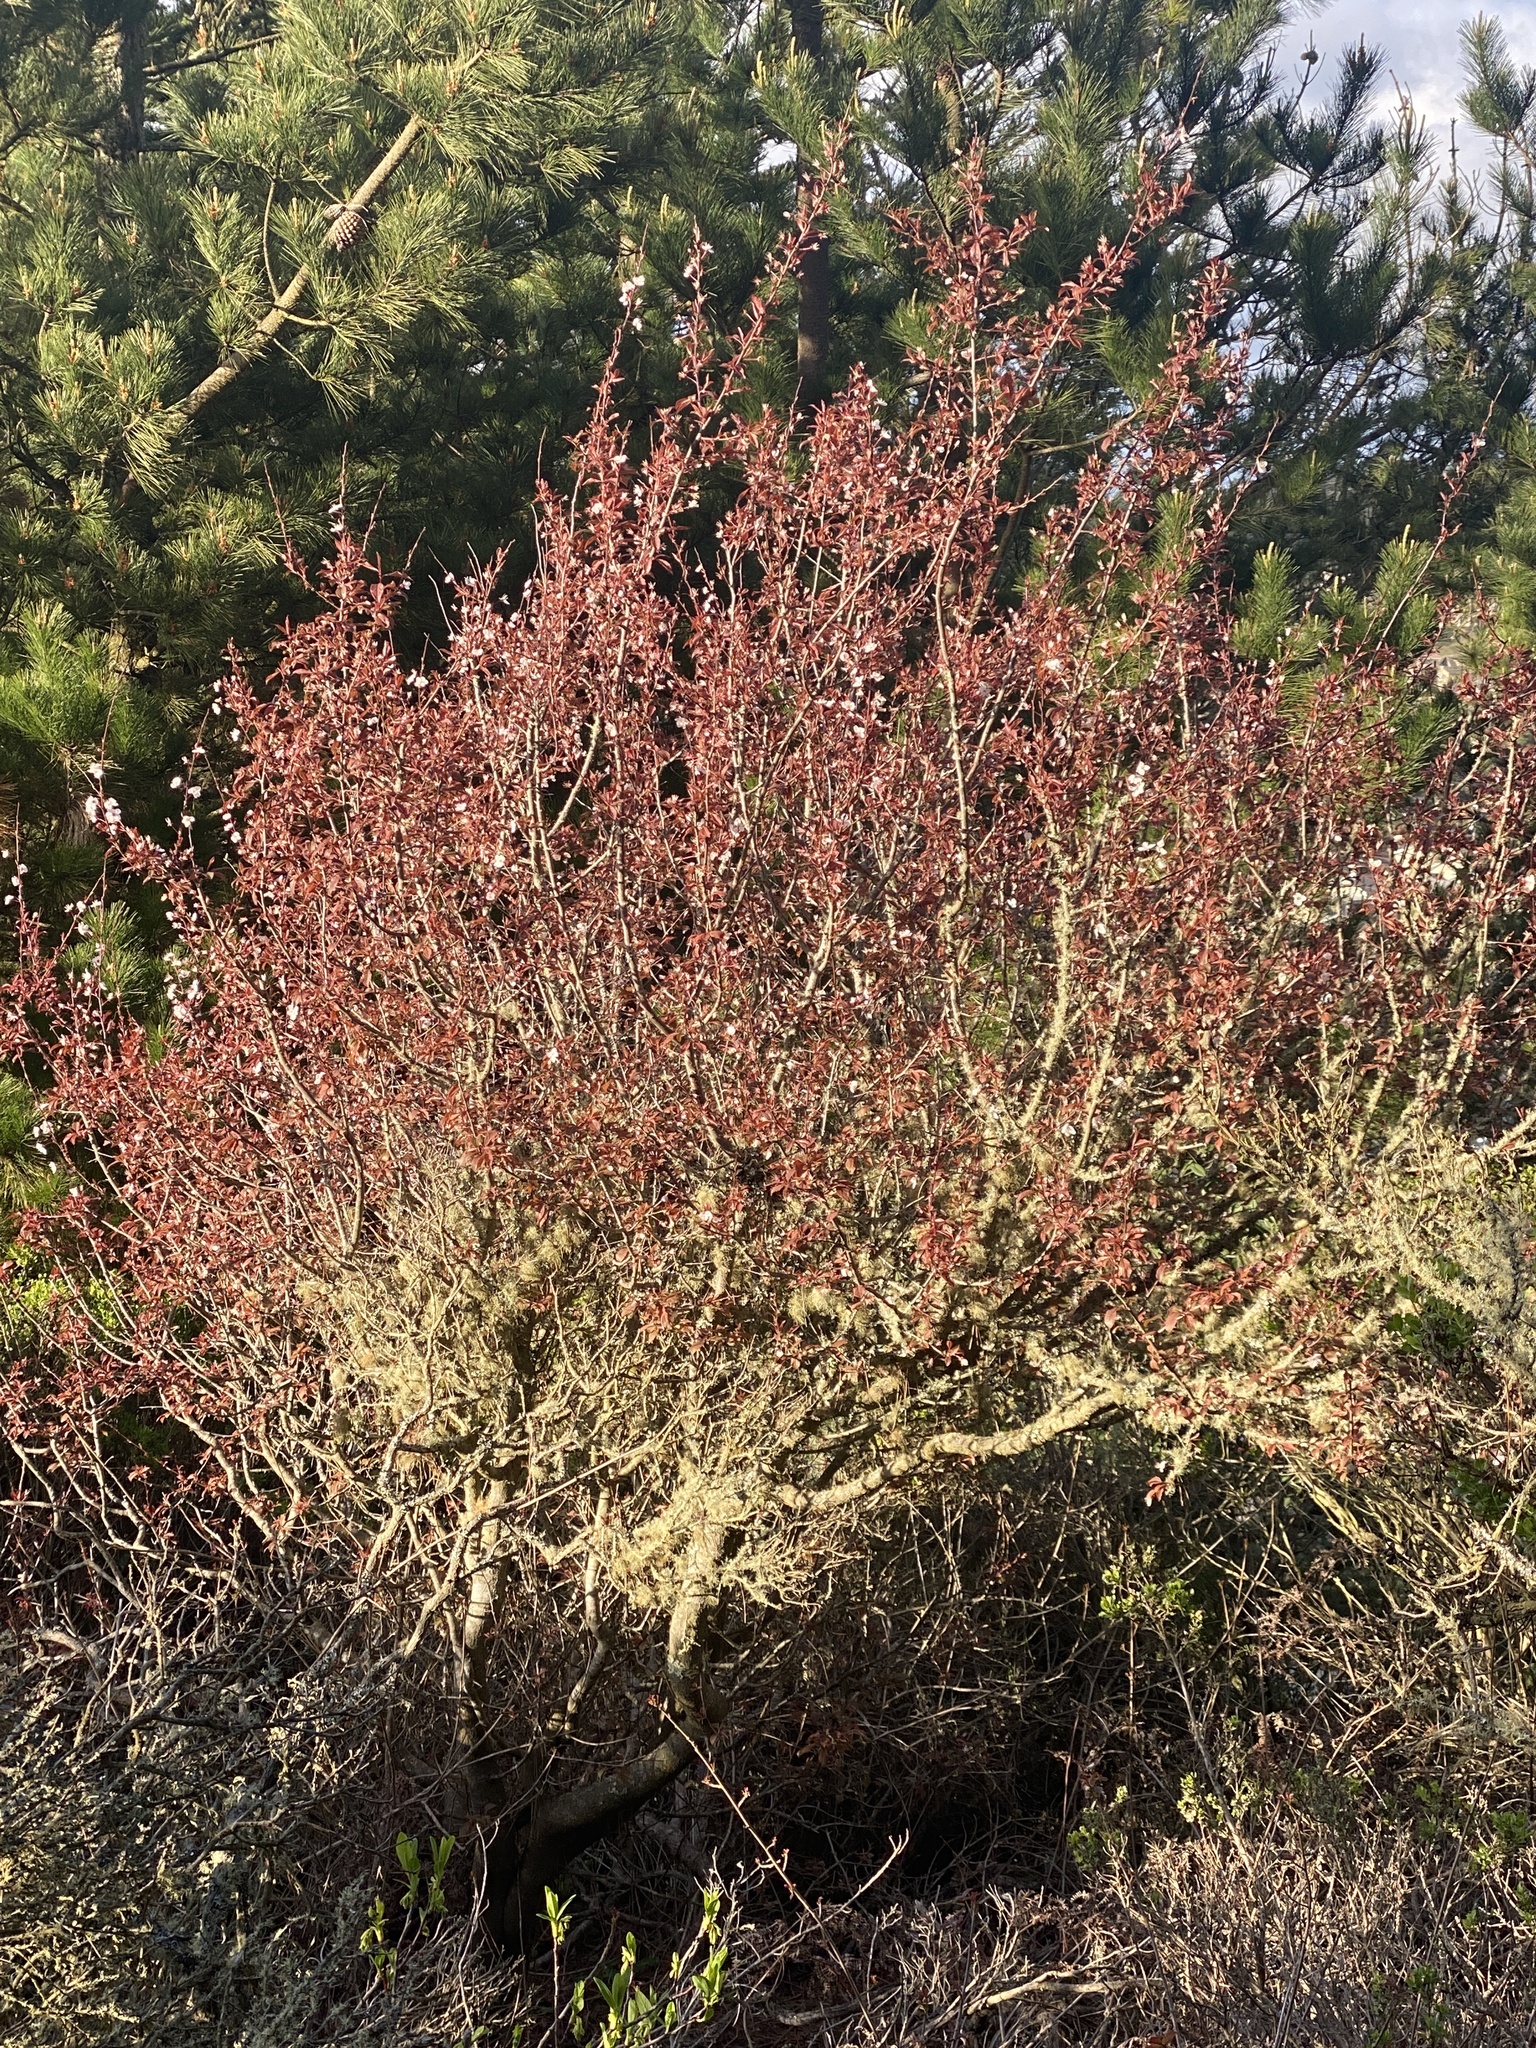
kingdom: Plantae
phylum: Tracheophyta
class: Magnoliopsida
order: Rosales
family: Rosaceae
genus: Prunus
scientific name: Prunus cerasifera
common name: Cherry plum
